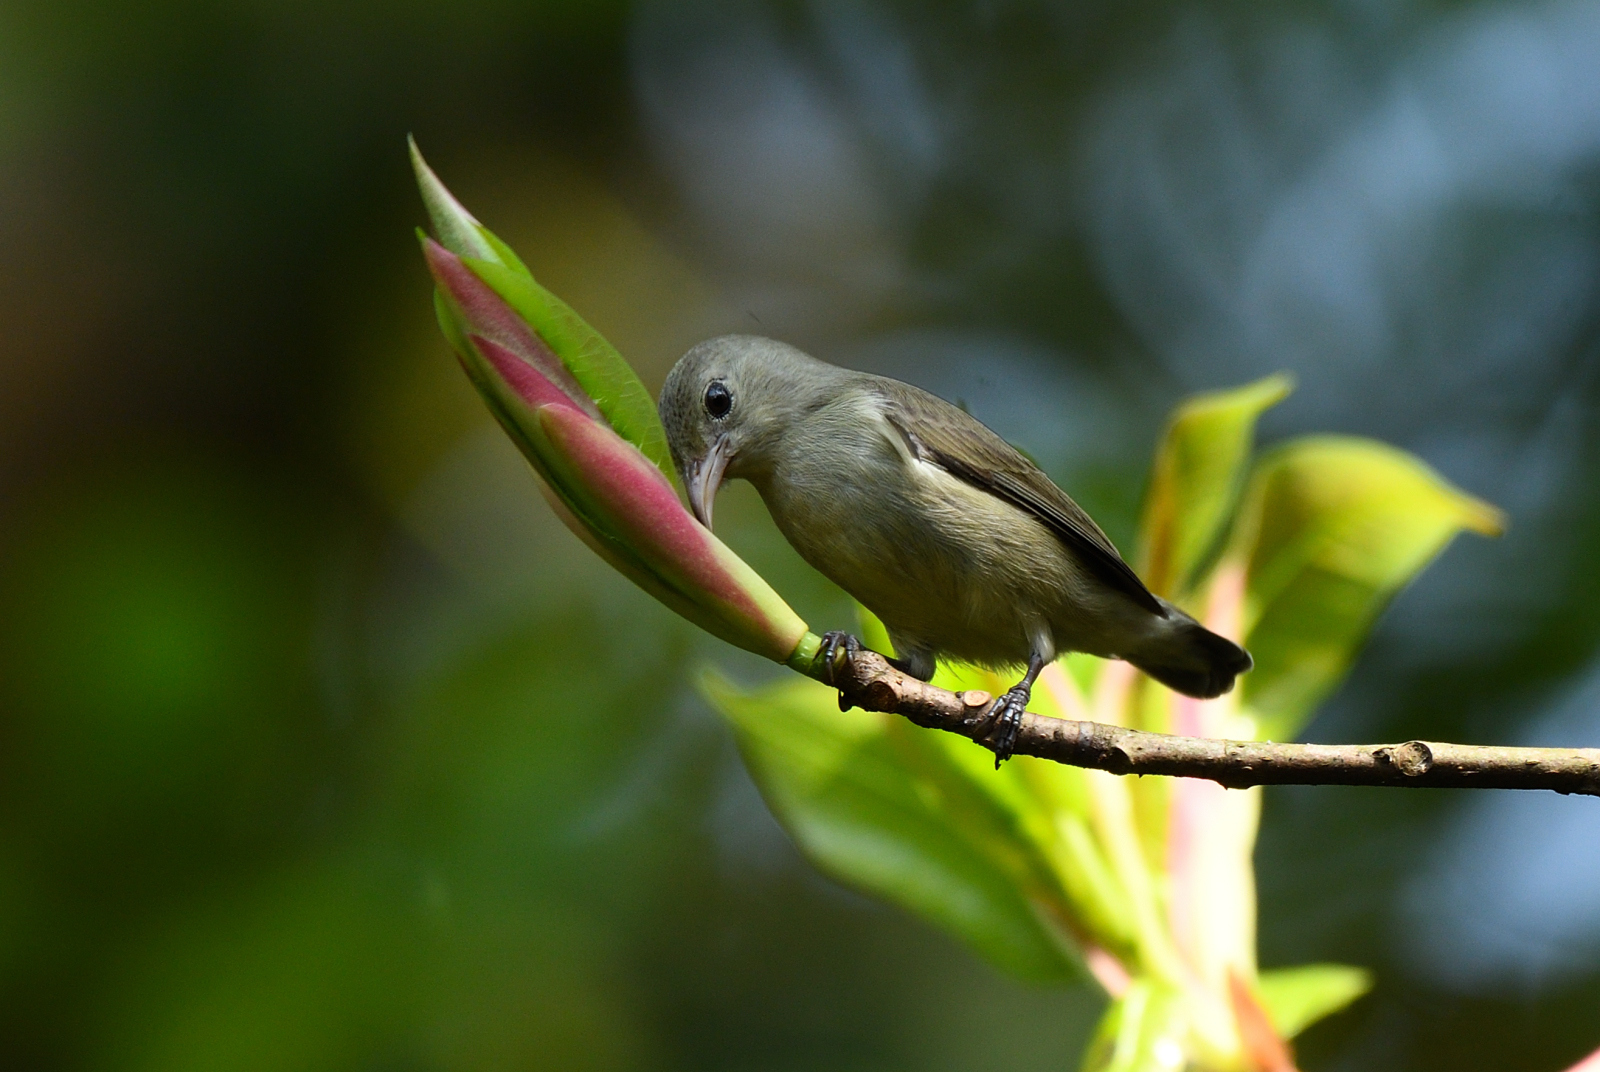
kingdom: Animalia
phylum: Chordata
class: Aves
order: Passeriformes
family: Dicaeidae
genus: Dicaeum
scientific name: Dicaeum erythrorhynchos
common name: Pale-billed flowerpecker
